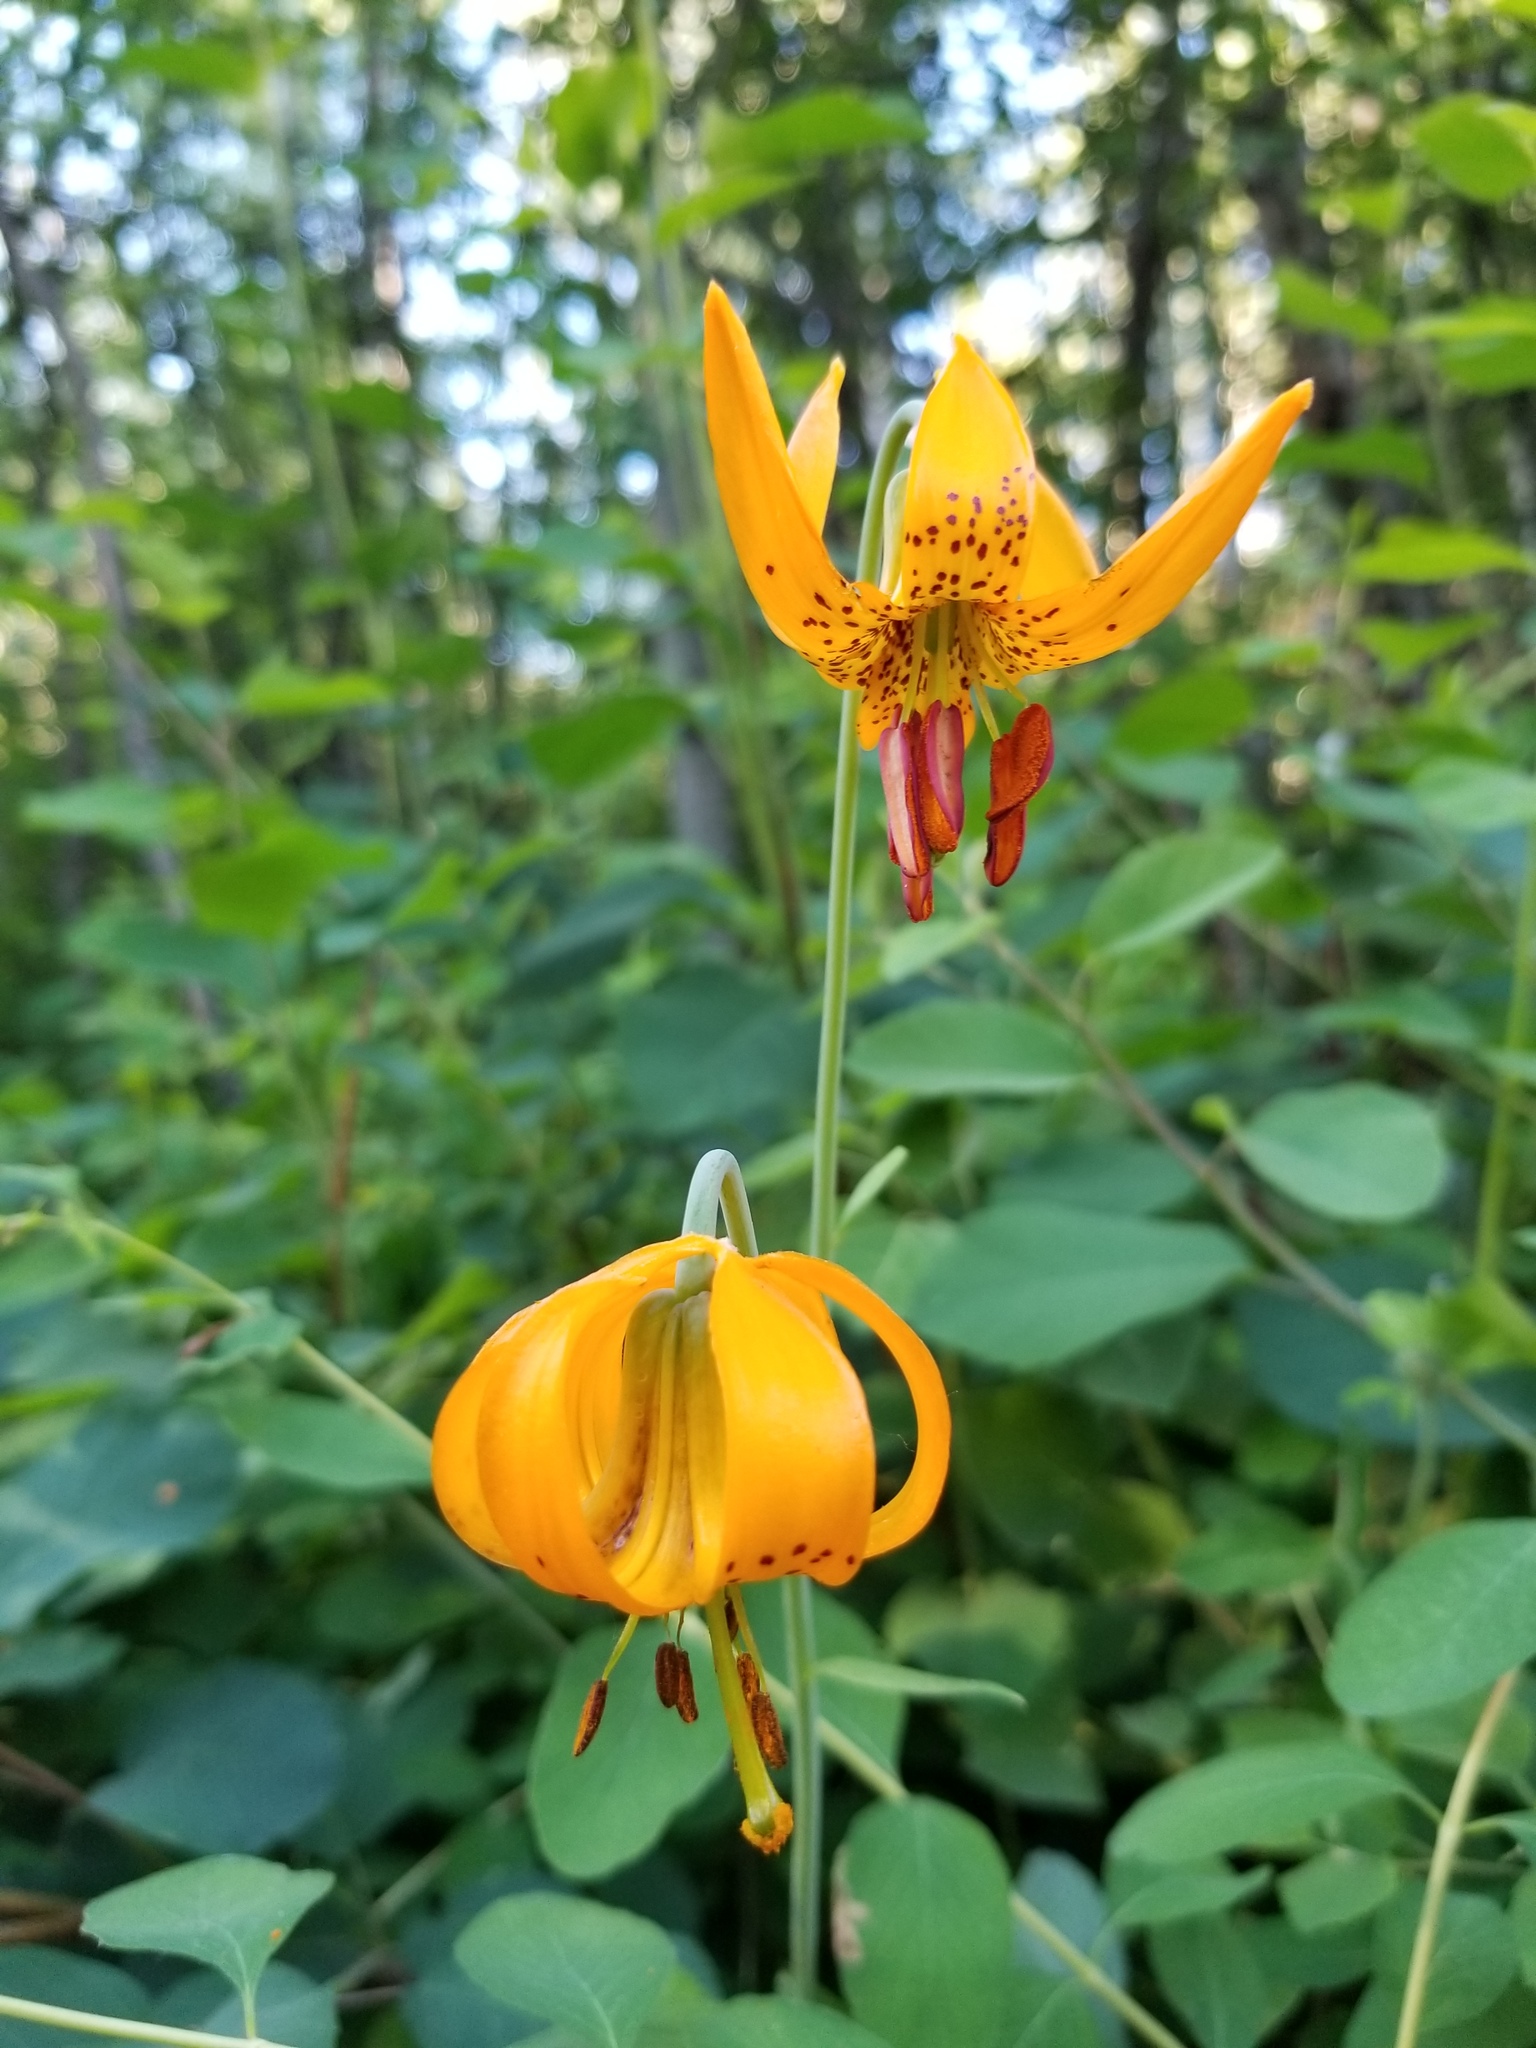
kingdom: Plantae
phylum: Tracheophyta
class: Liliopsida
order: Liliales
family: Liliaceae
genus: Lilium
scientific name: Lilium columbianum
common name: Columbia lily
